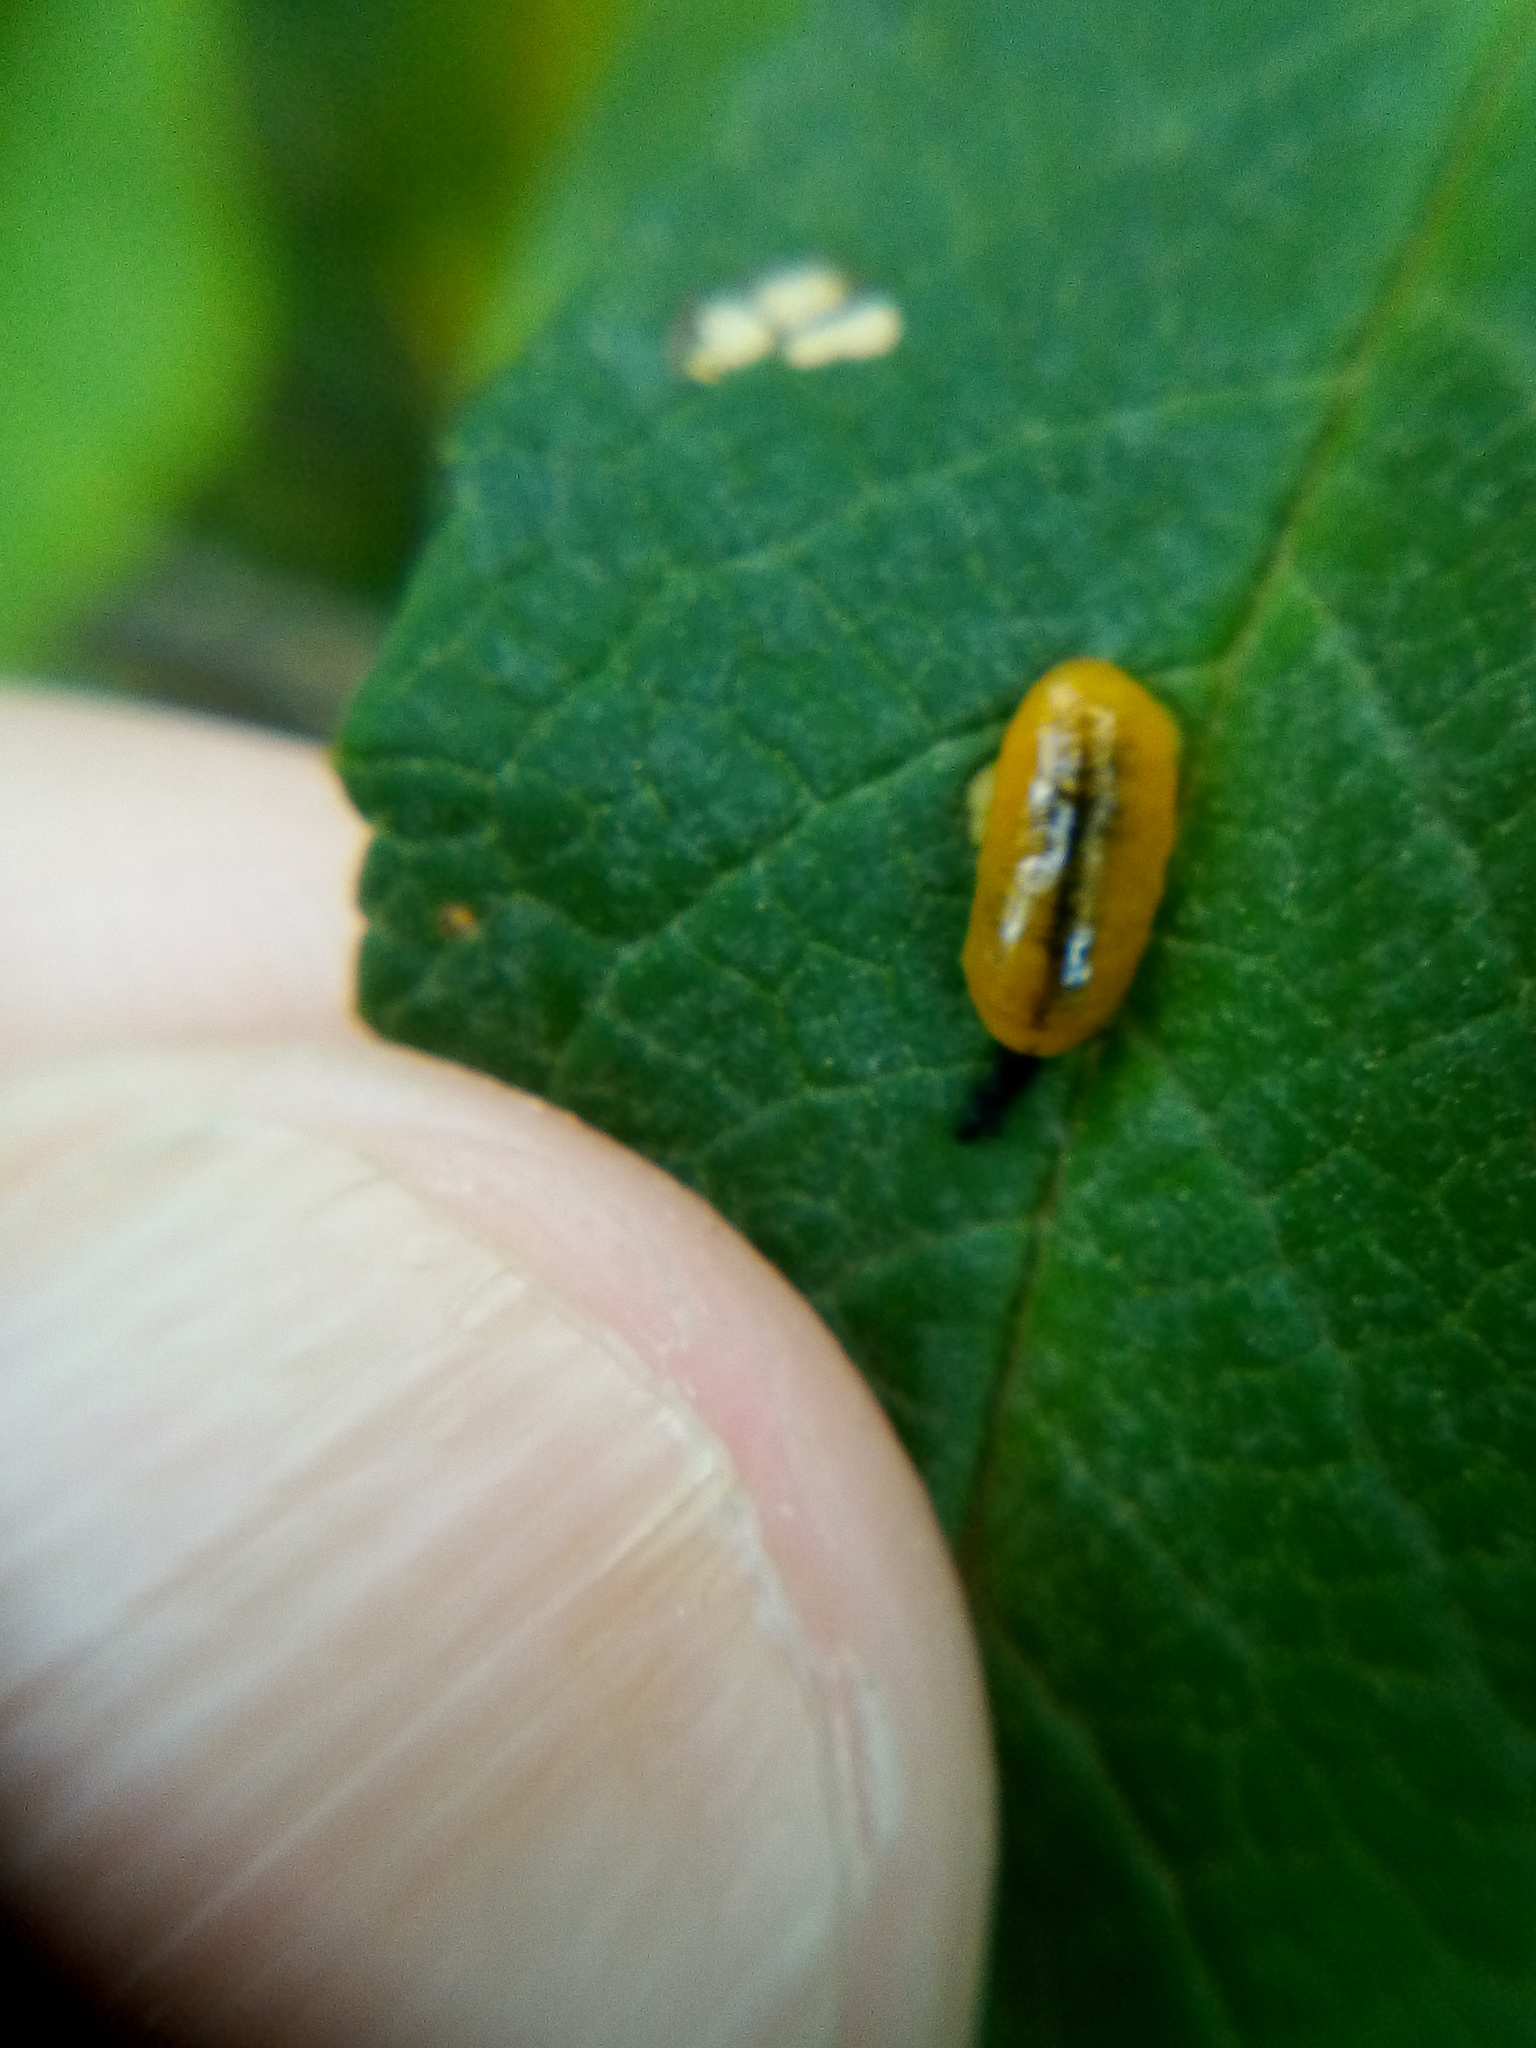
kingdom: Animalia
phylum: Arthropoda
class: Insecta
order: Coleoptera
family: Curculionidae
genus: Cleopus
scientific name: Cleopus japonicus
